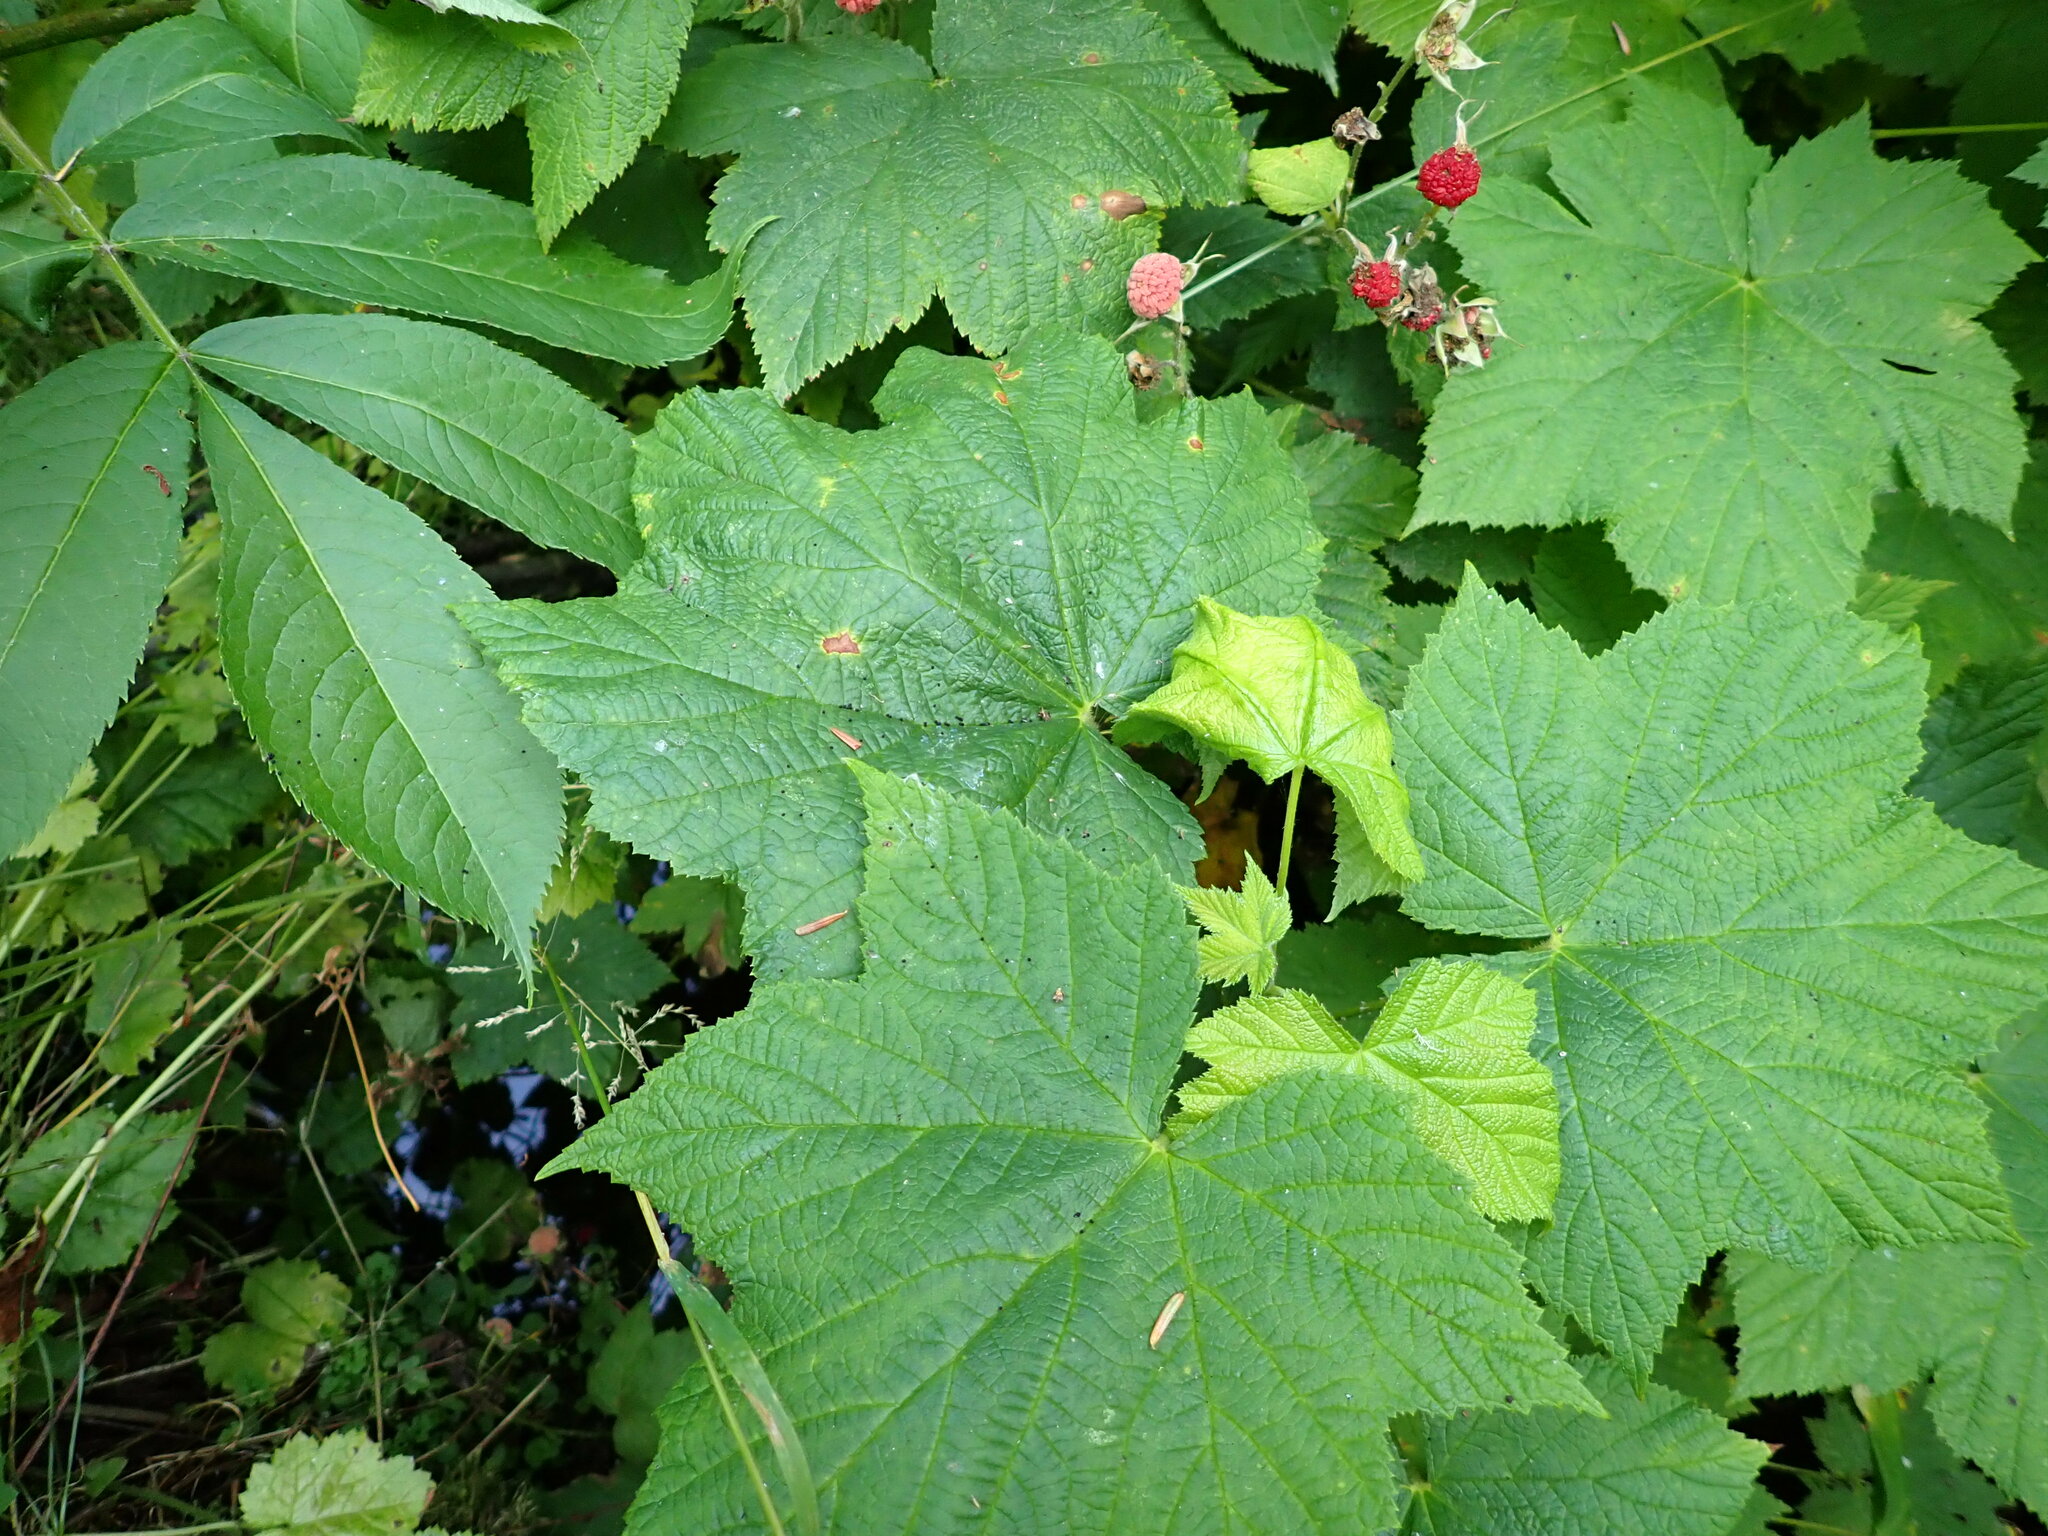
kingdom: Plantae
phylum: Tracheophyta
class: Magnoliopsida
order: Rosales
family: Rosaceae
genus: Rubus
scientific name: Rubus parviflorus
